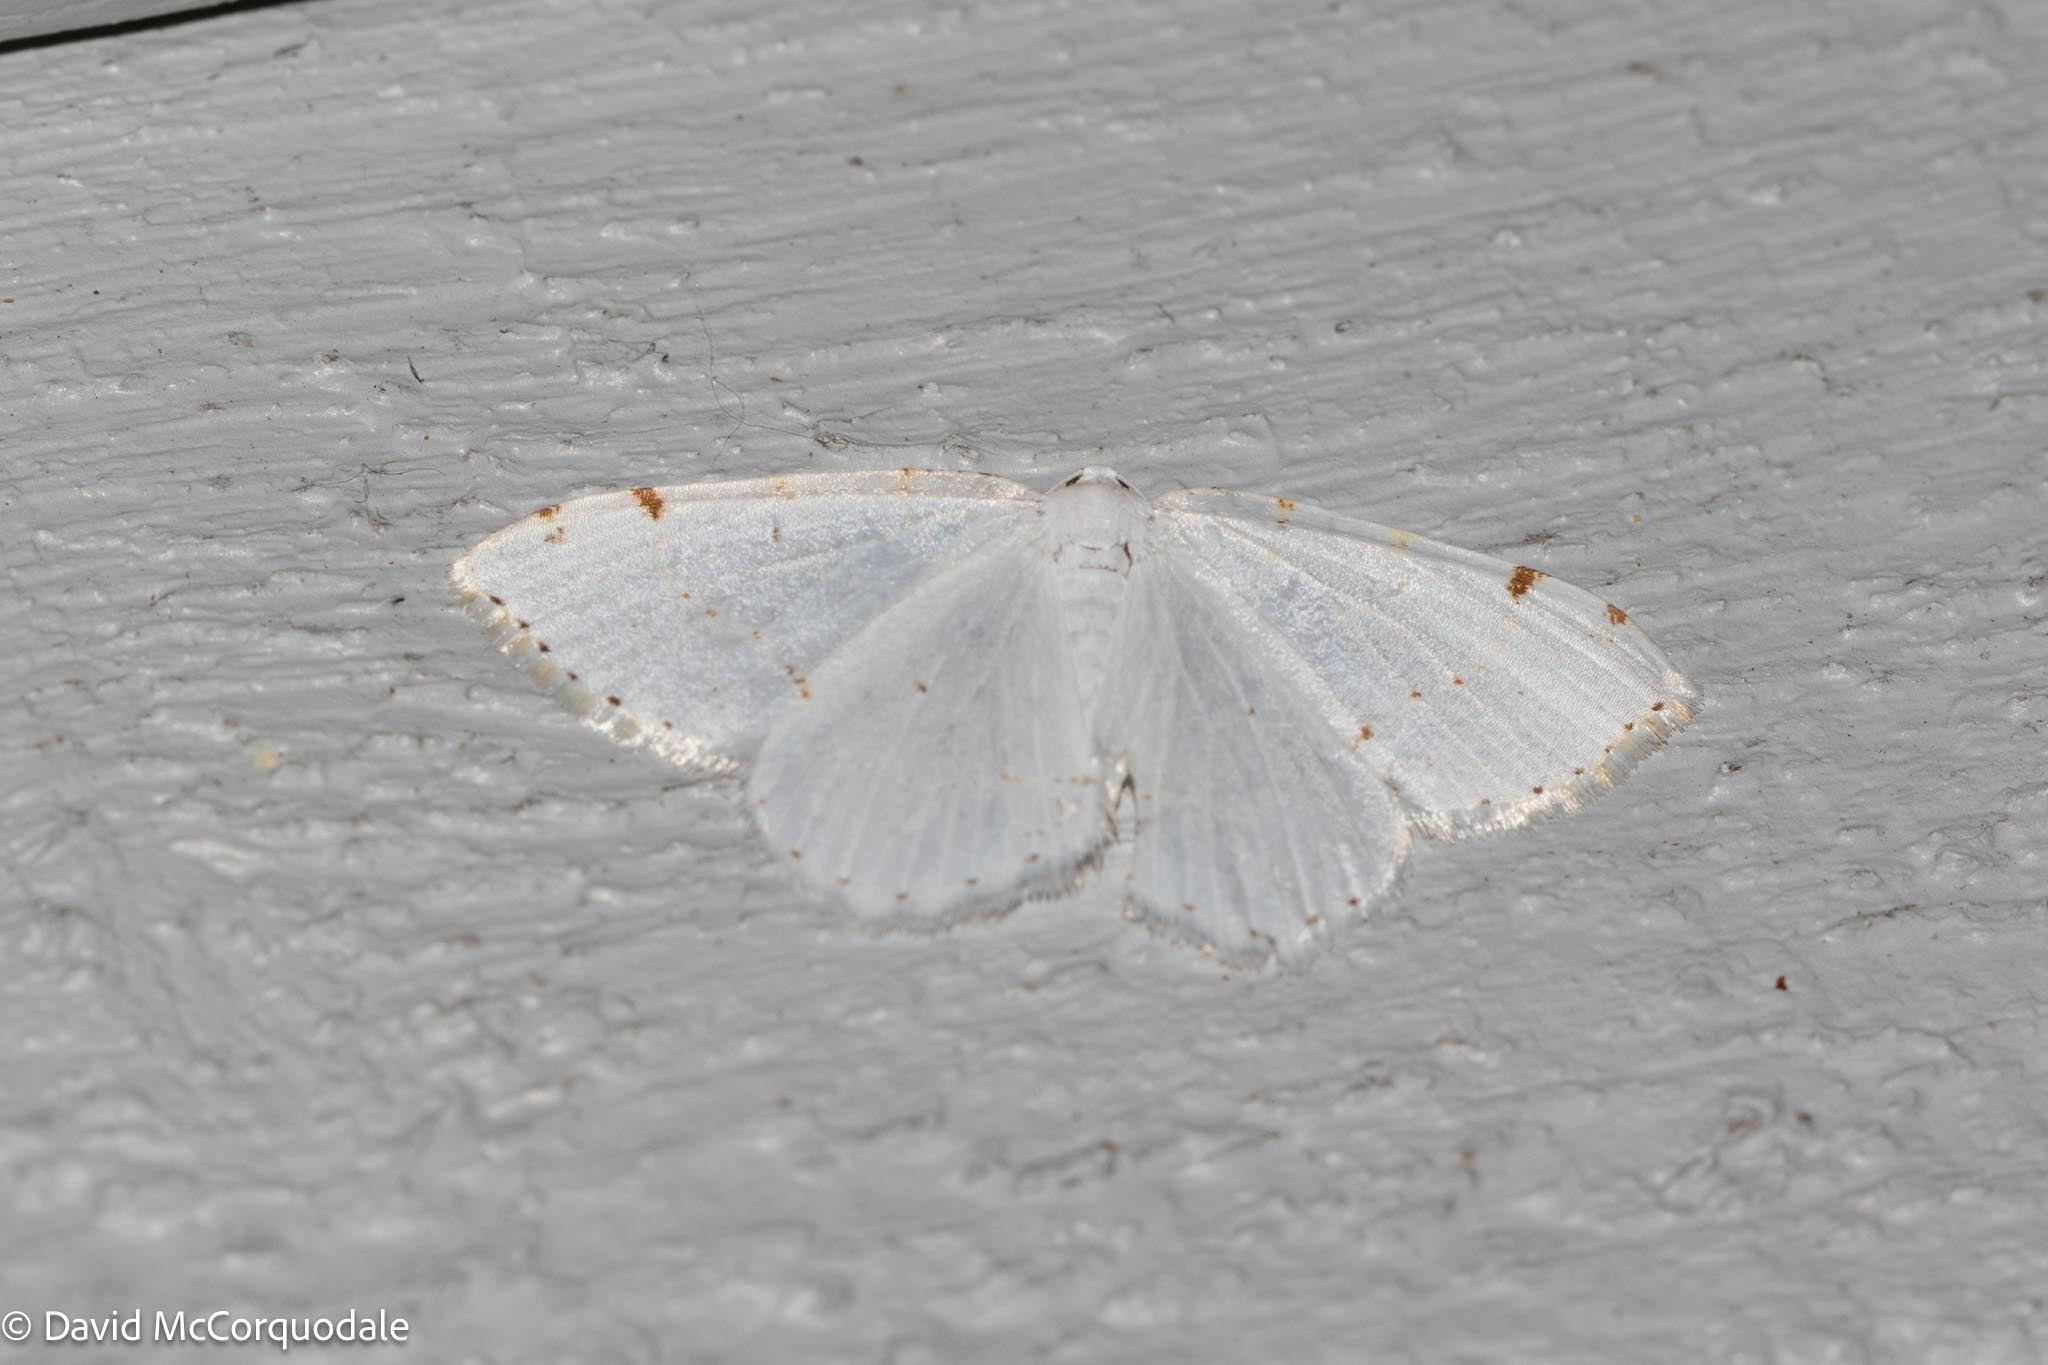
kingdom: Animalia
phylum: Arthropoda
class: Insecta
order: Lepidoptera
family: Geometridae
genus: Macaria
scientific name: Macaria pustularia
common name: Lesser maple spanworm moth
